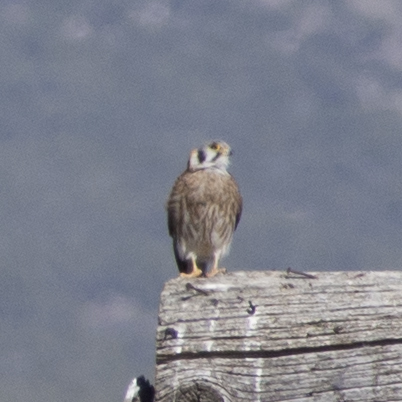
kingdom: Animalia
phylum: Chordata
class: Aves
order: Falconiformes
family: Falconidae
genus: Falco
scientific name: Falco sparverius
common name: American kestrel
